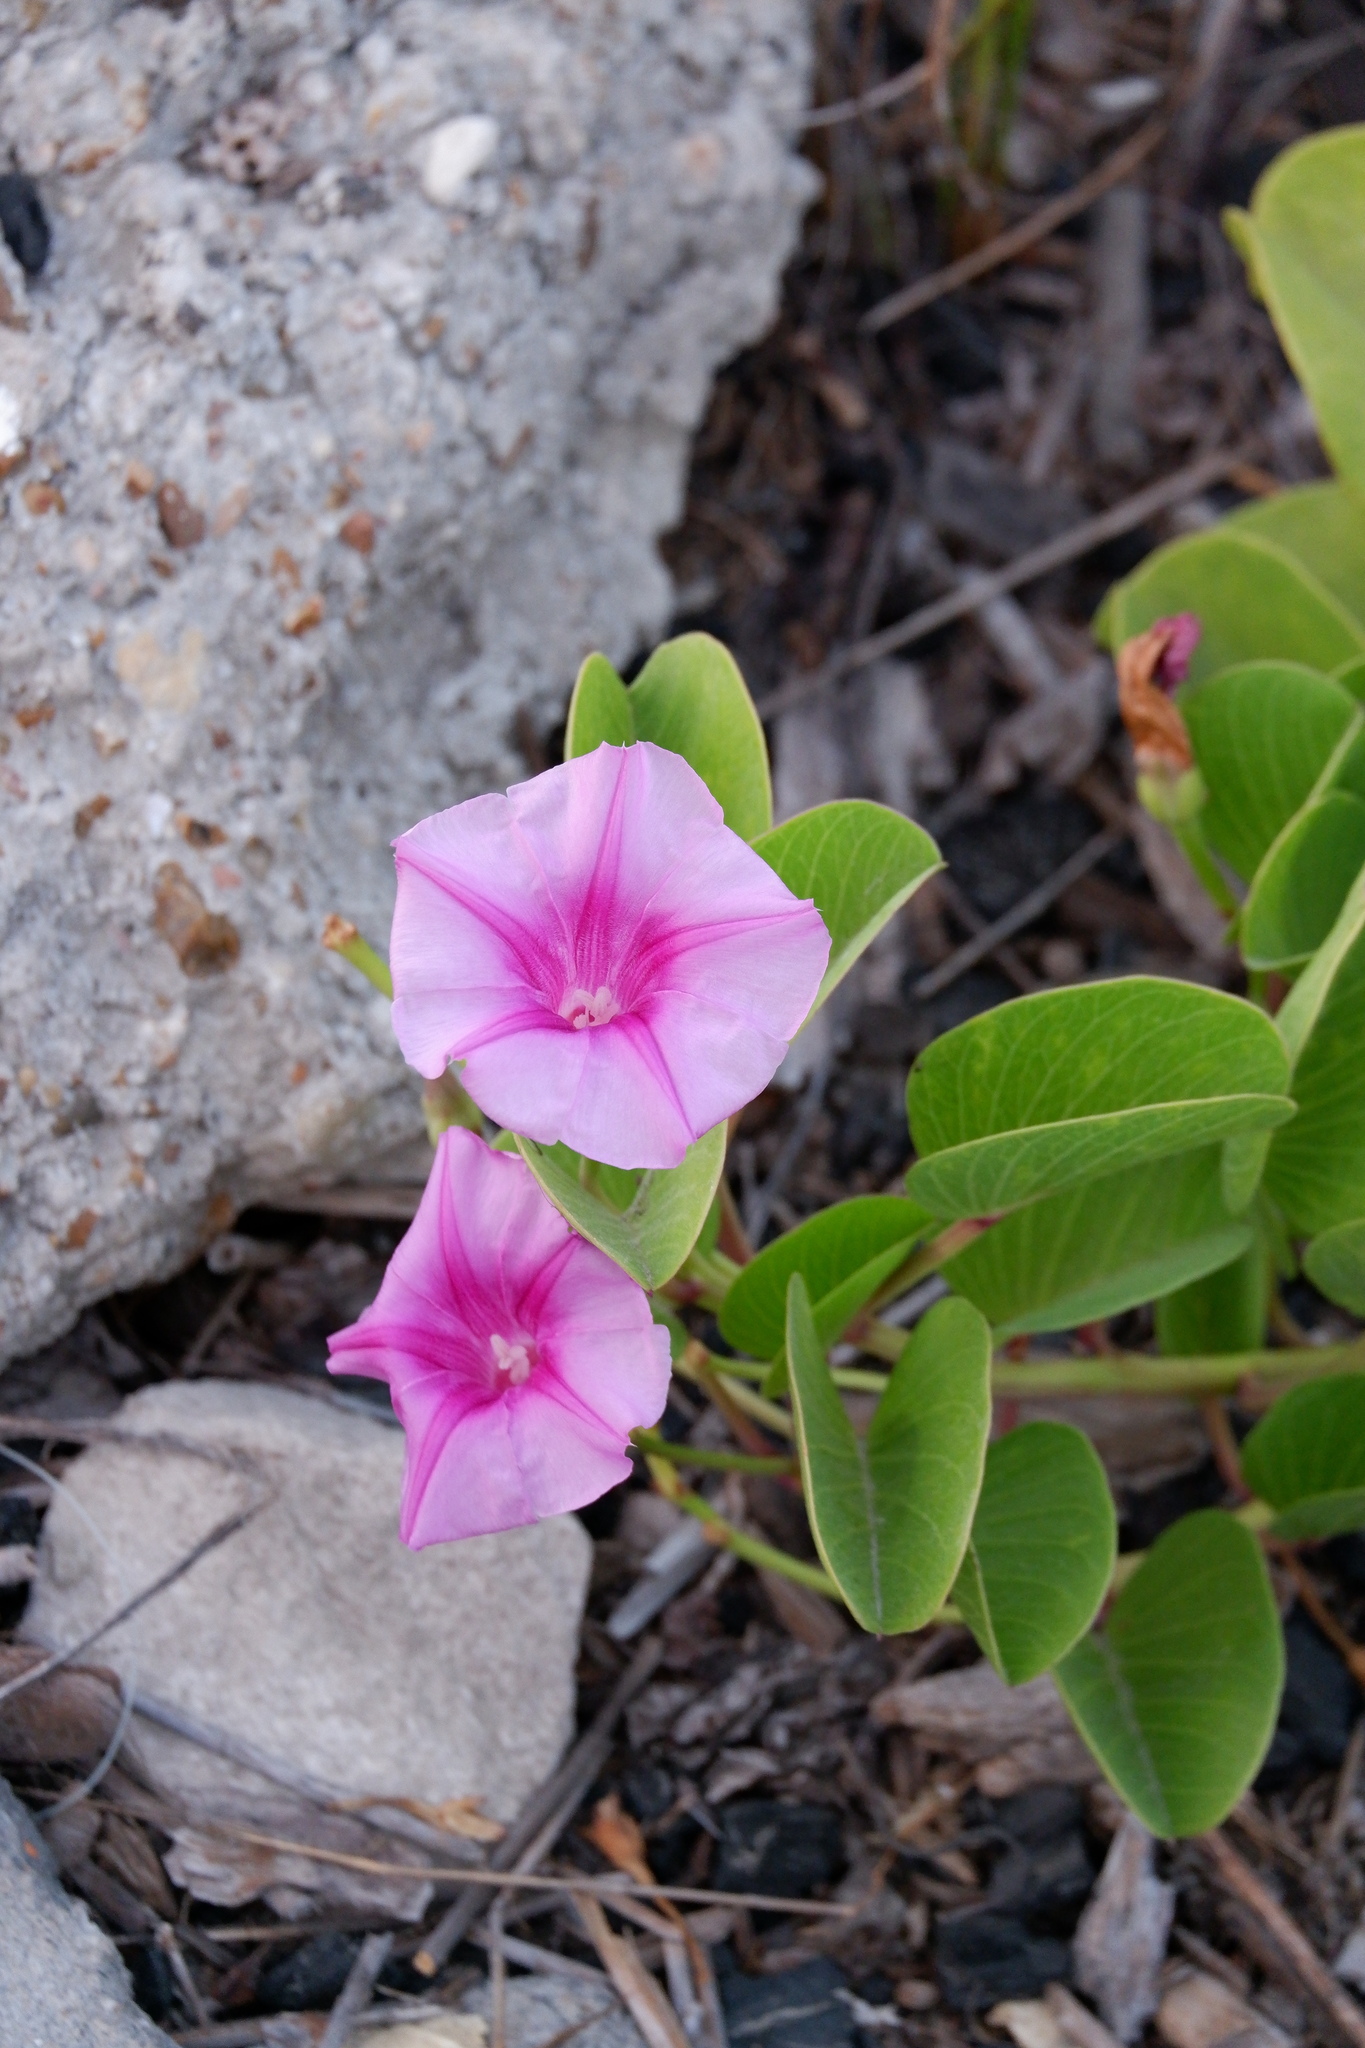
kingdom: Plantae
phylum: Tracheophyta
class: Magnoliopsida
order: Solanales
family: Convolvulaceae
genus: Ipomoea
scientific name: Ipomoea pes-caprae
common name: Beach morning glory
